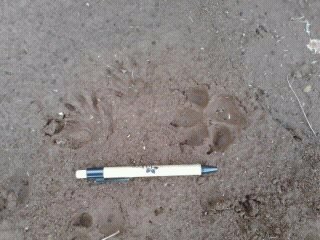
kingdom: Animalia
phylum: Chordata
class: Mammalia
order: Carnivora
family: Canidae
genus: Canis
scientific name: Canis latrans
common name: Coyote
